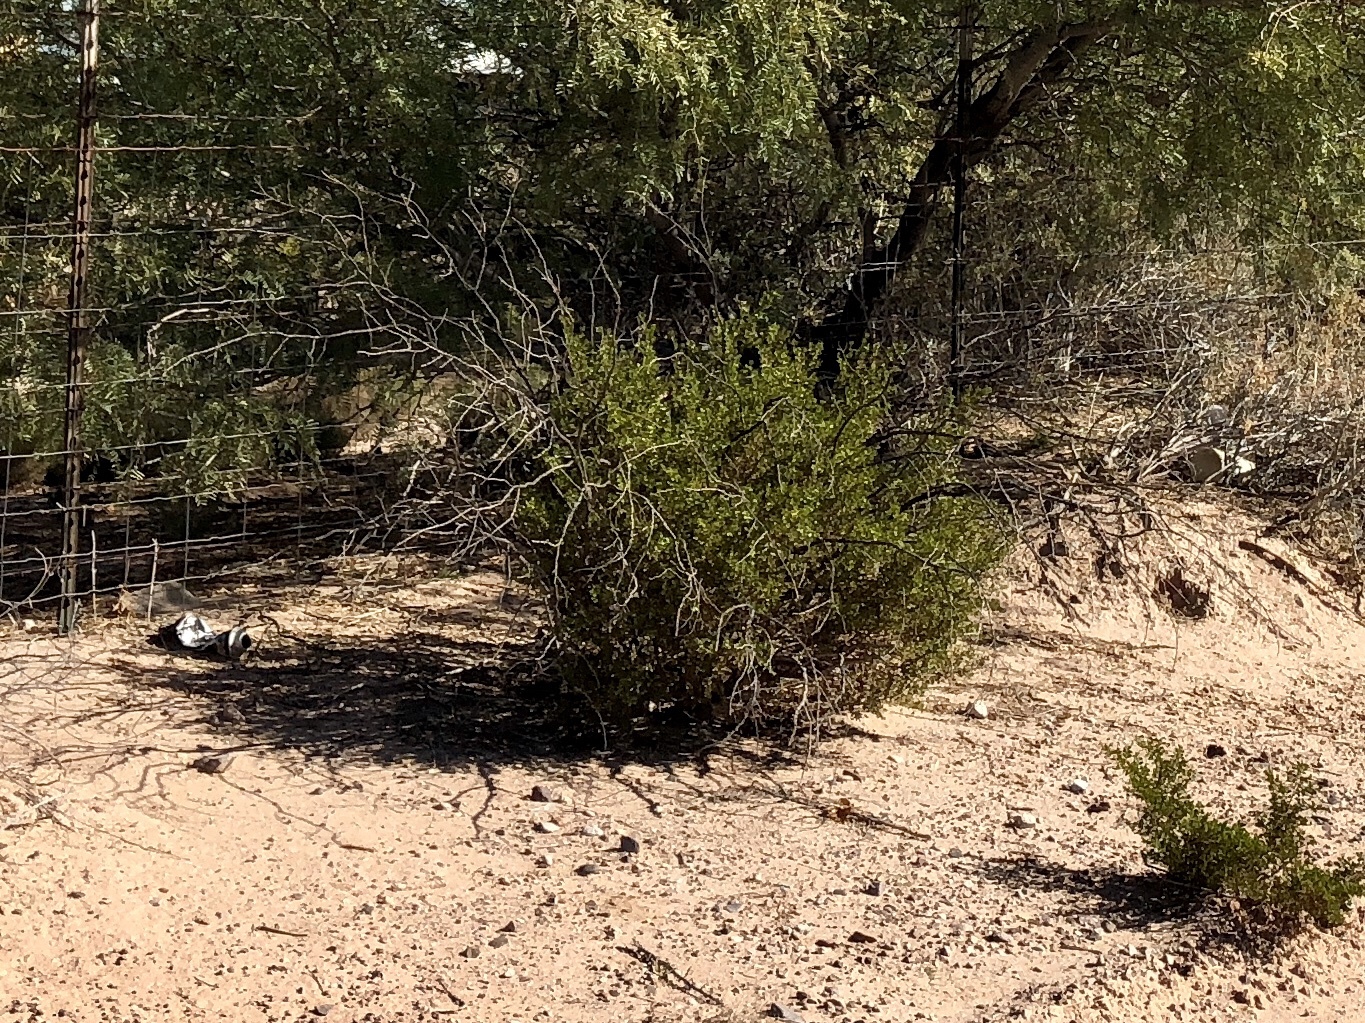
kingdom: Plantae
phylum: Tracheophyta
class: Magnoliopsida
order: Zygophyllales
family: Zygophyllaceae
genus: Larrea
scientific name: Larrea tridentata
